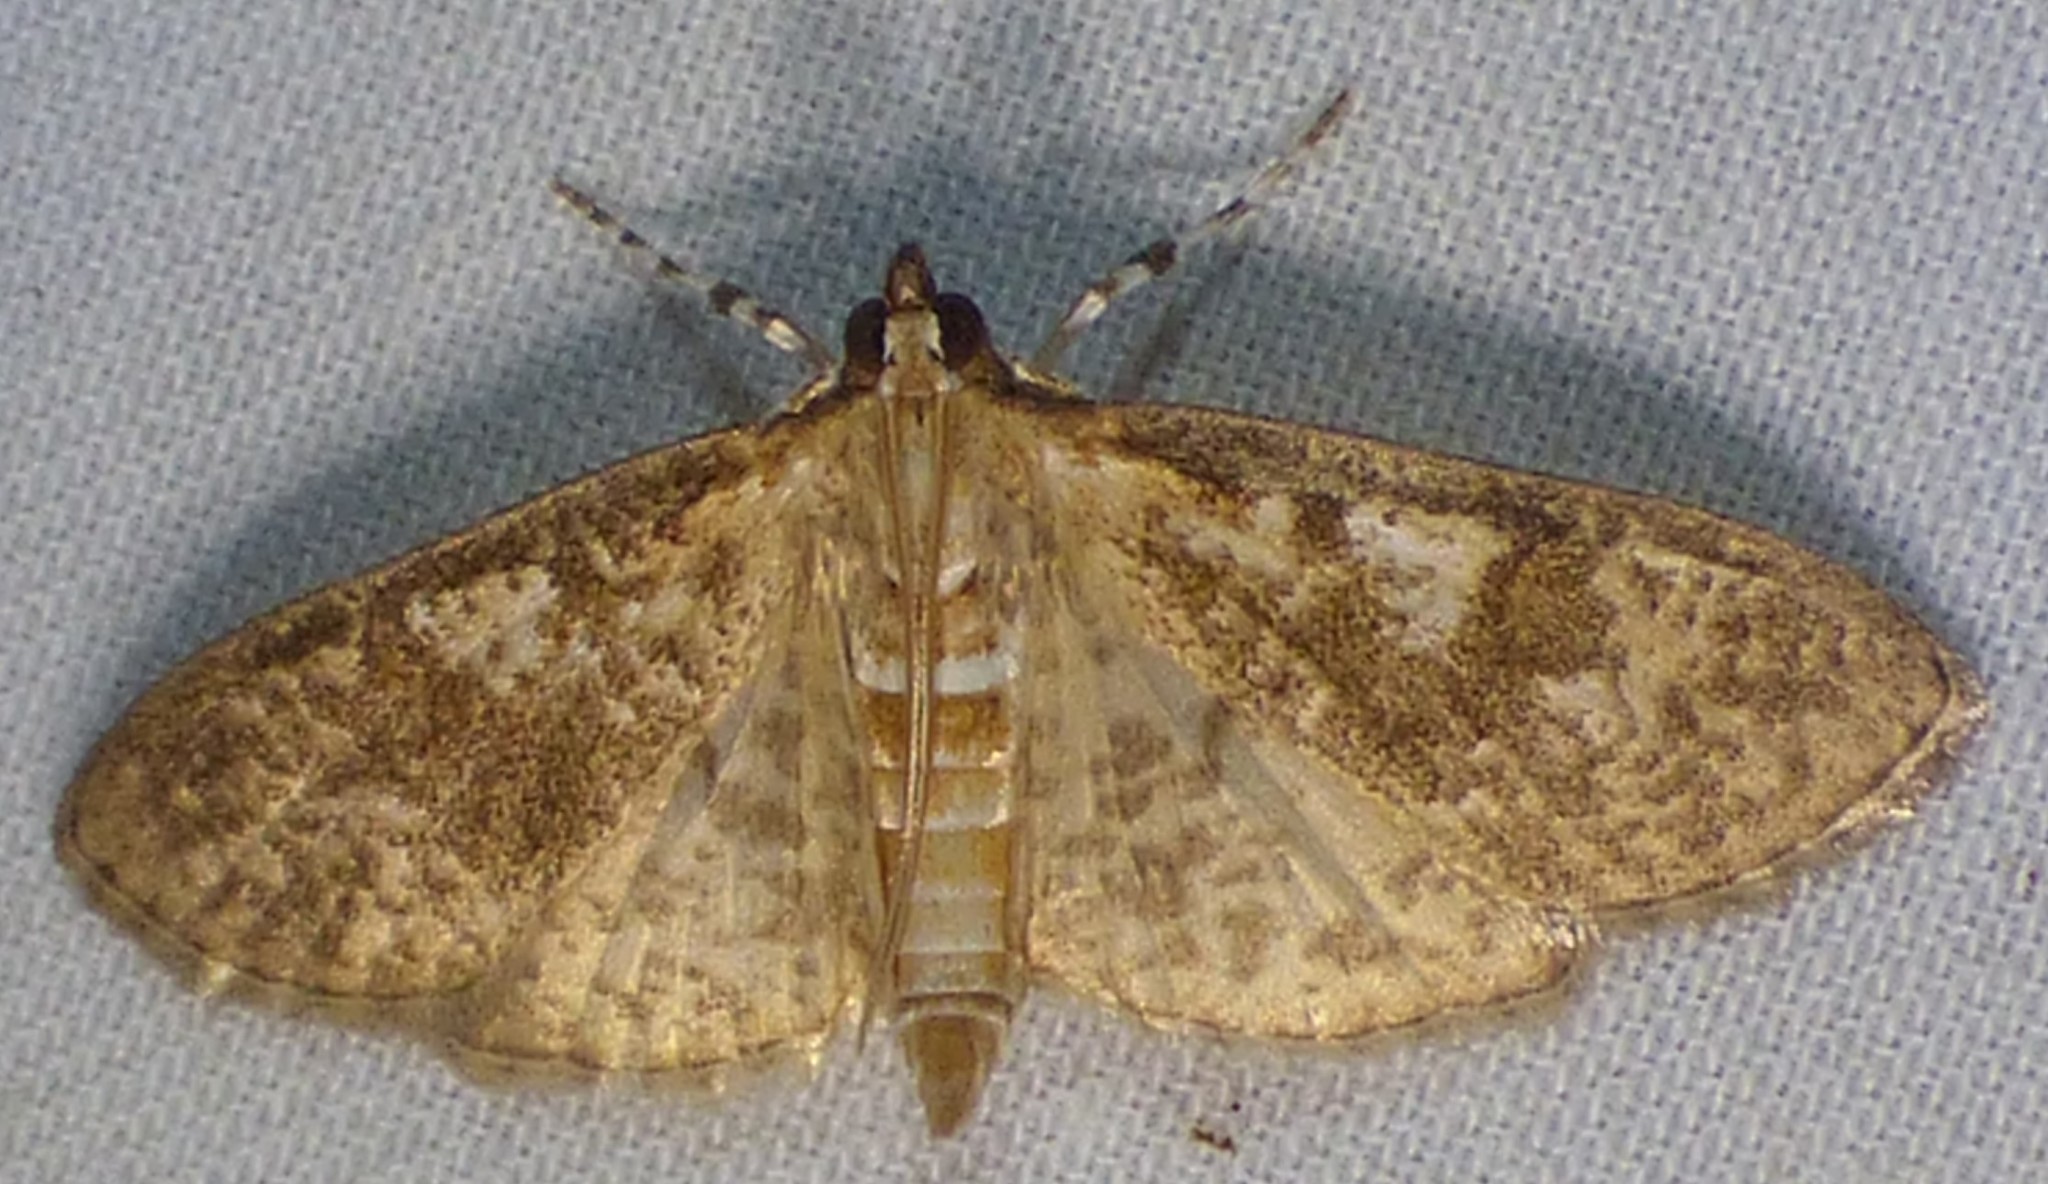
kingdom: Animalia
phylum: Arthropoda
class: Insecta
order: Lepidoptera
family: Crambidae
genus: Palpita
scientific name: Palpita freemanalis
